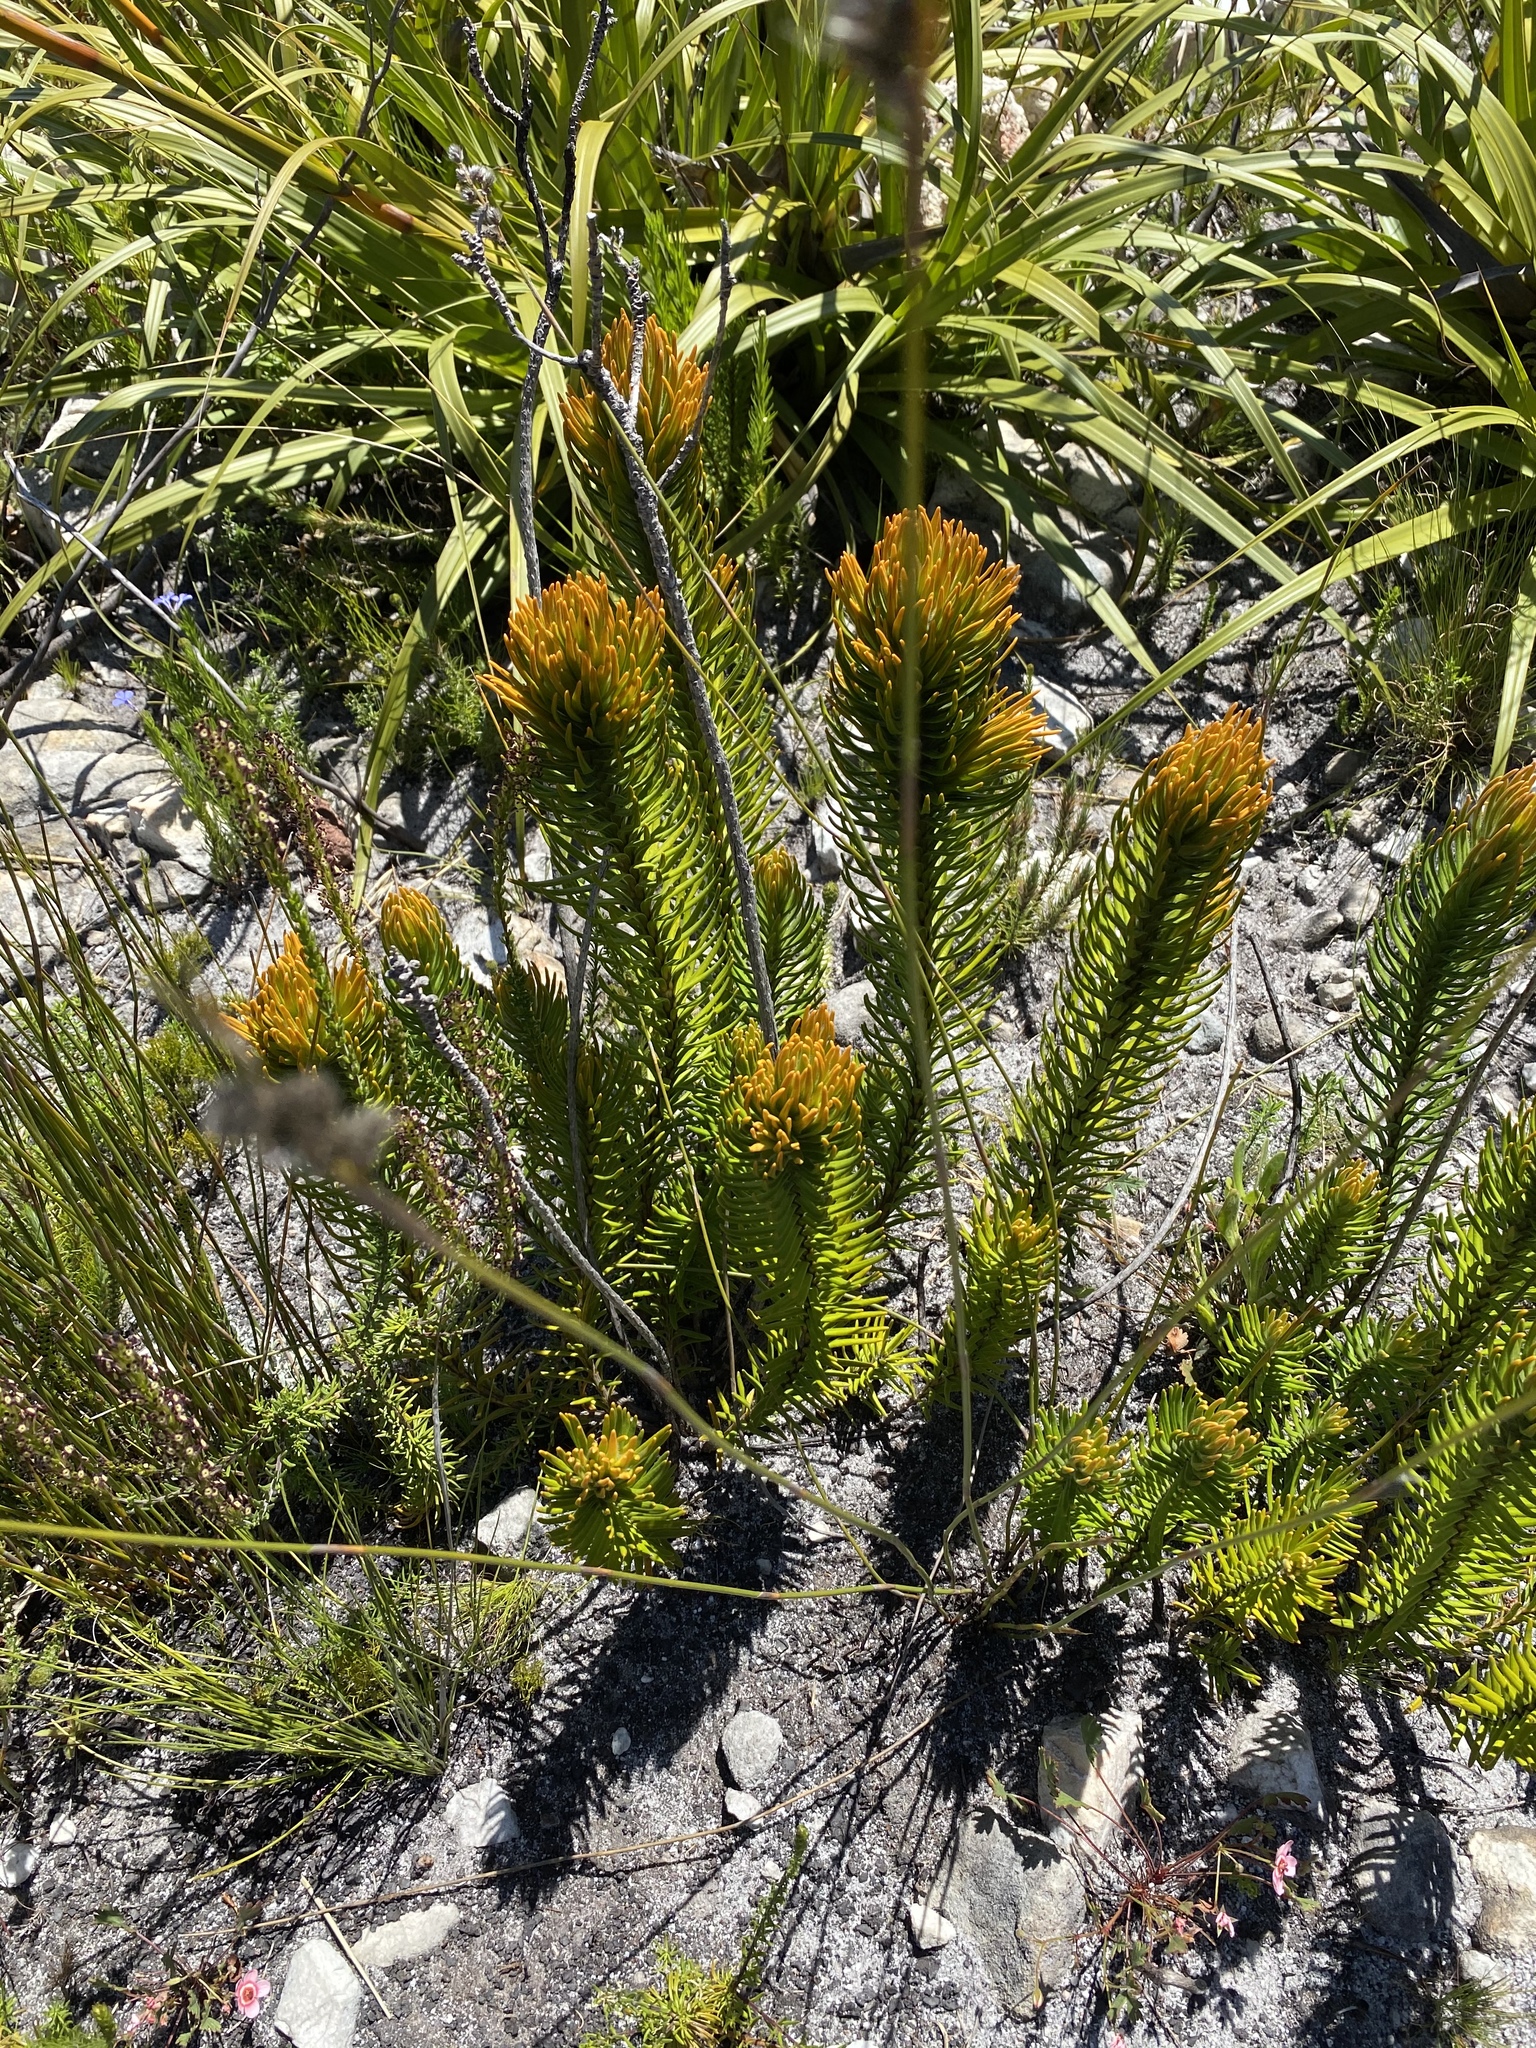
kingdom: Plantae
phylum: Tracheophyta
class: Magnoliopsida
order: Lamiales
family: Stilbaceae
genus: Retzia
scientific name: Retzia capensis
